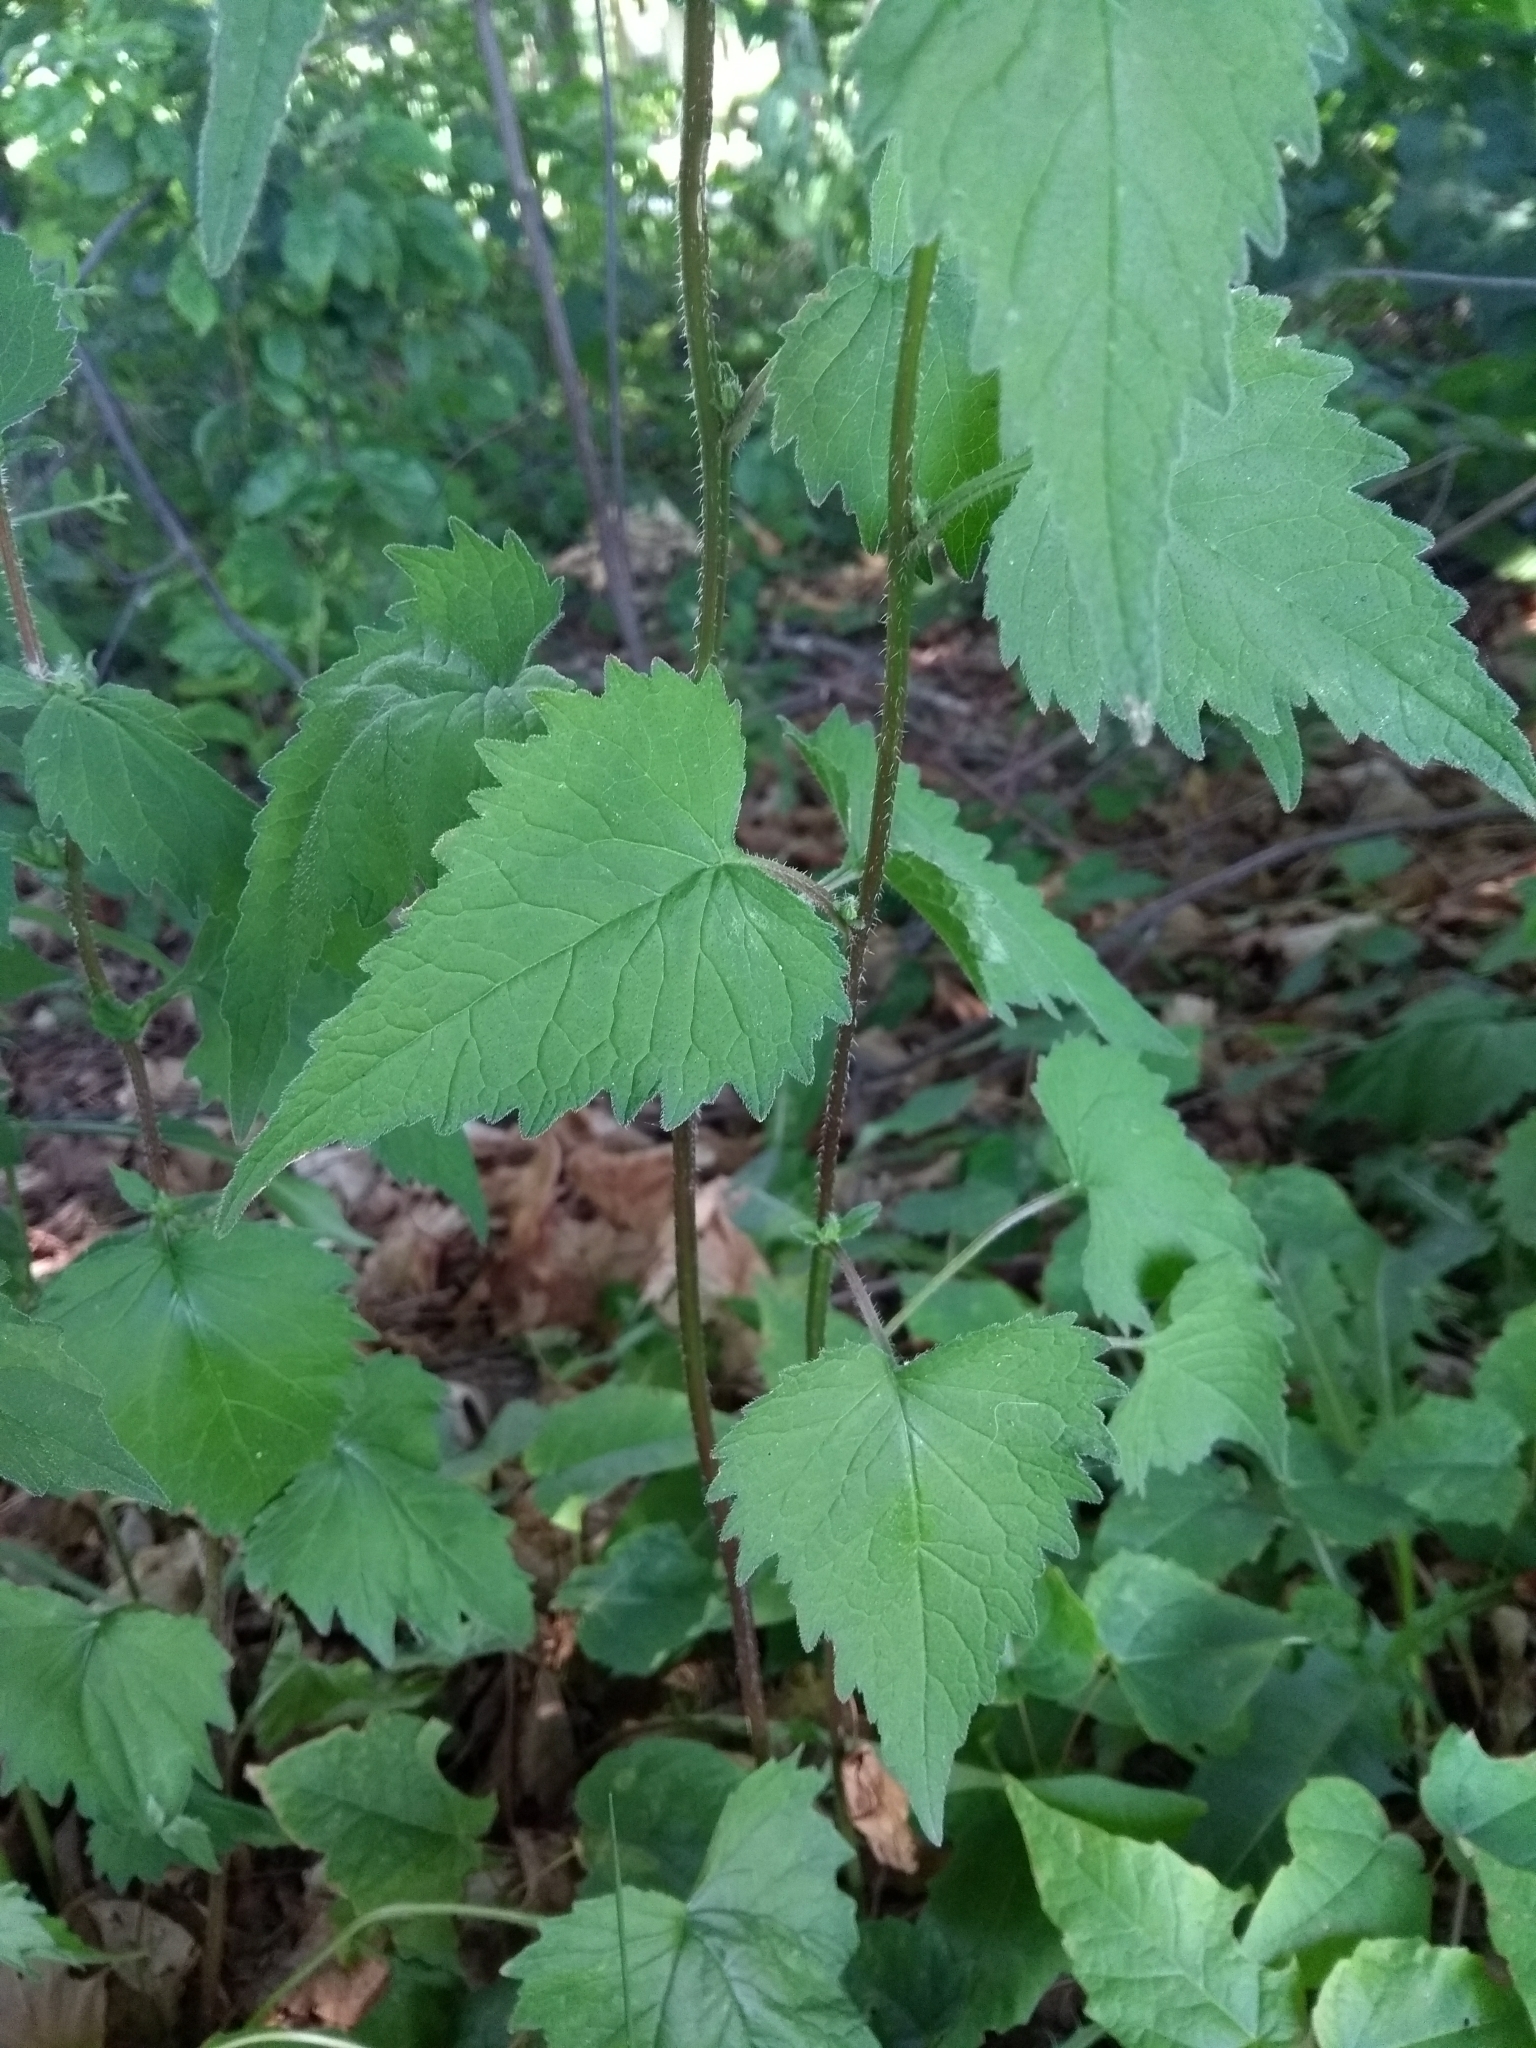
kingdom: Plantae
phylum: Tracheophyta
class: Magnoliopsida
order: Asterales
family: Campanulaceae
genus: Campanula
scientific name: Campanula trachelium
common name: Nettle-leaved bellflower
